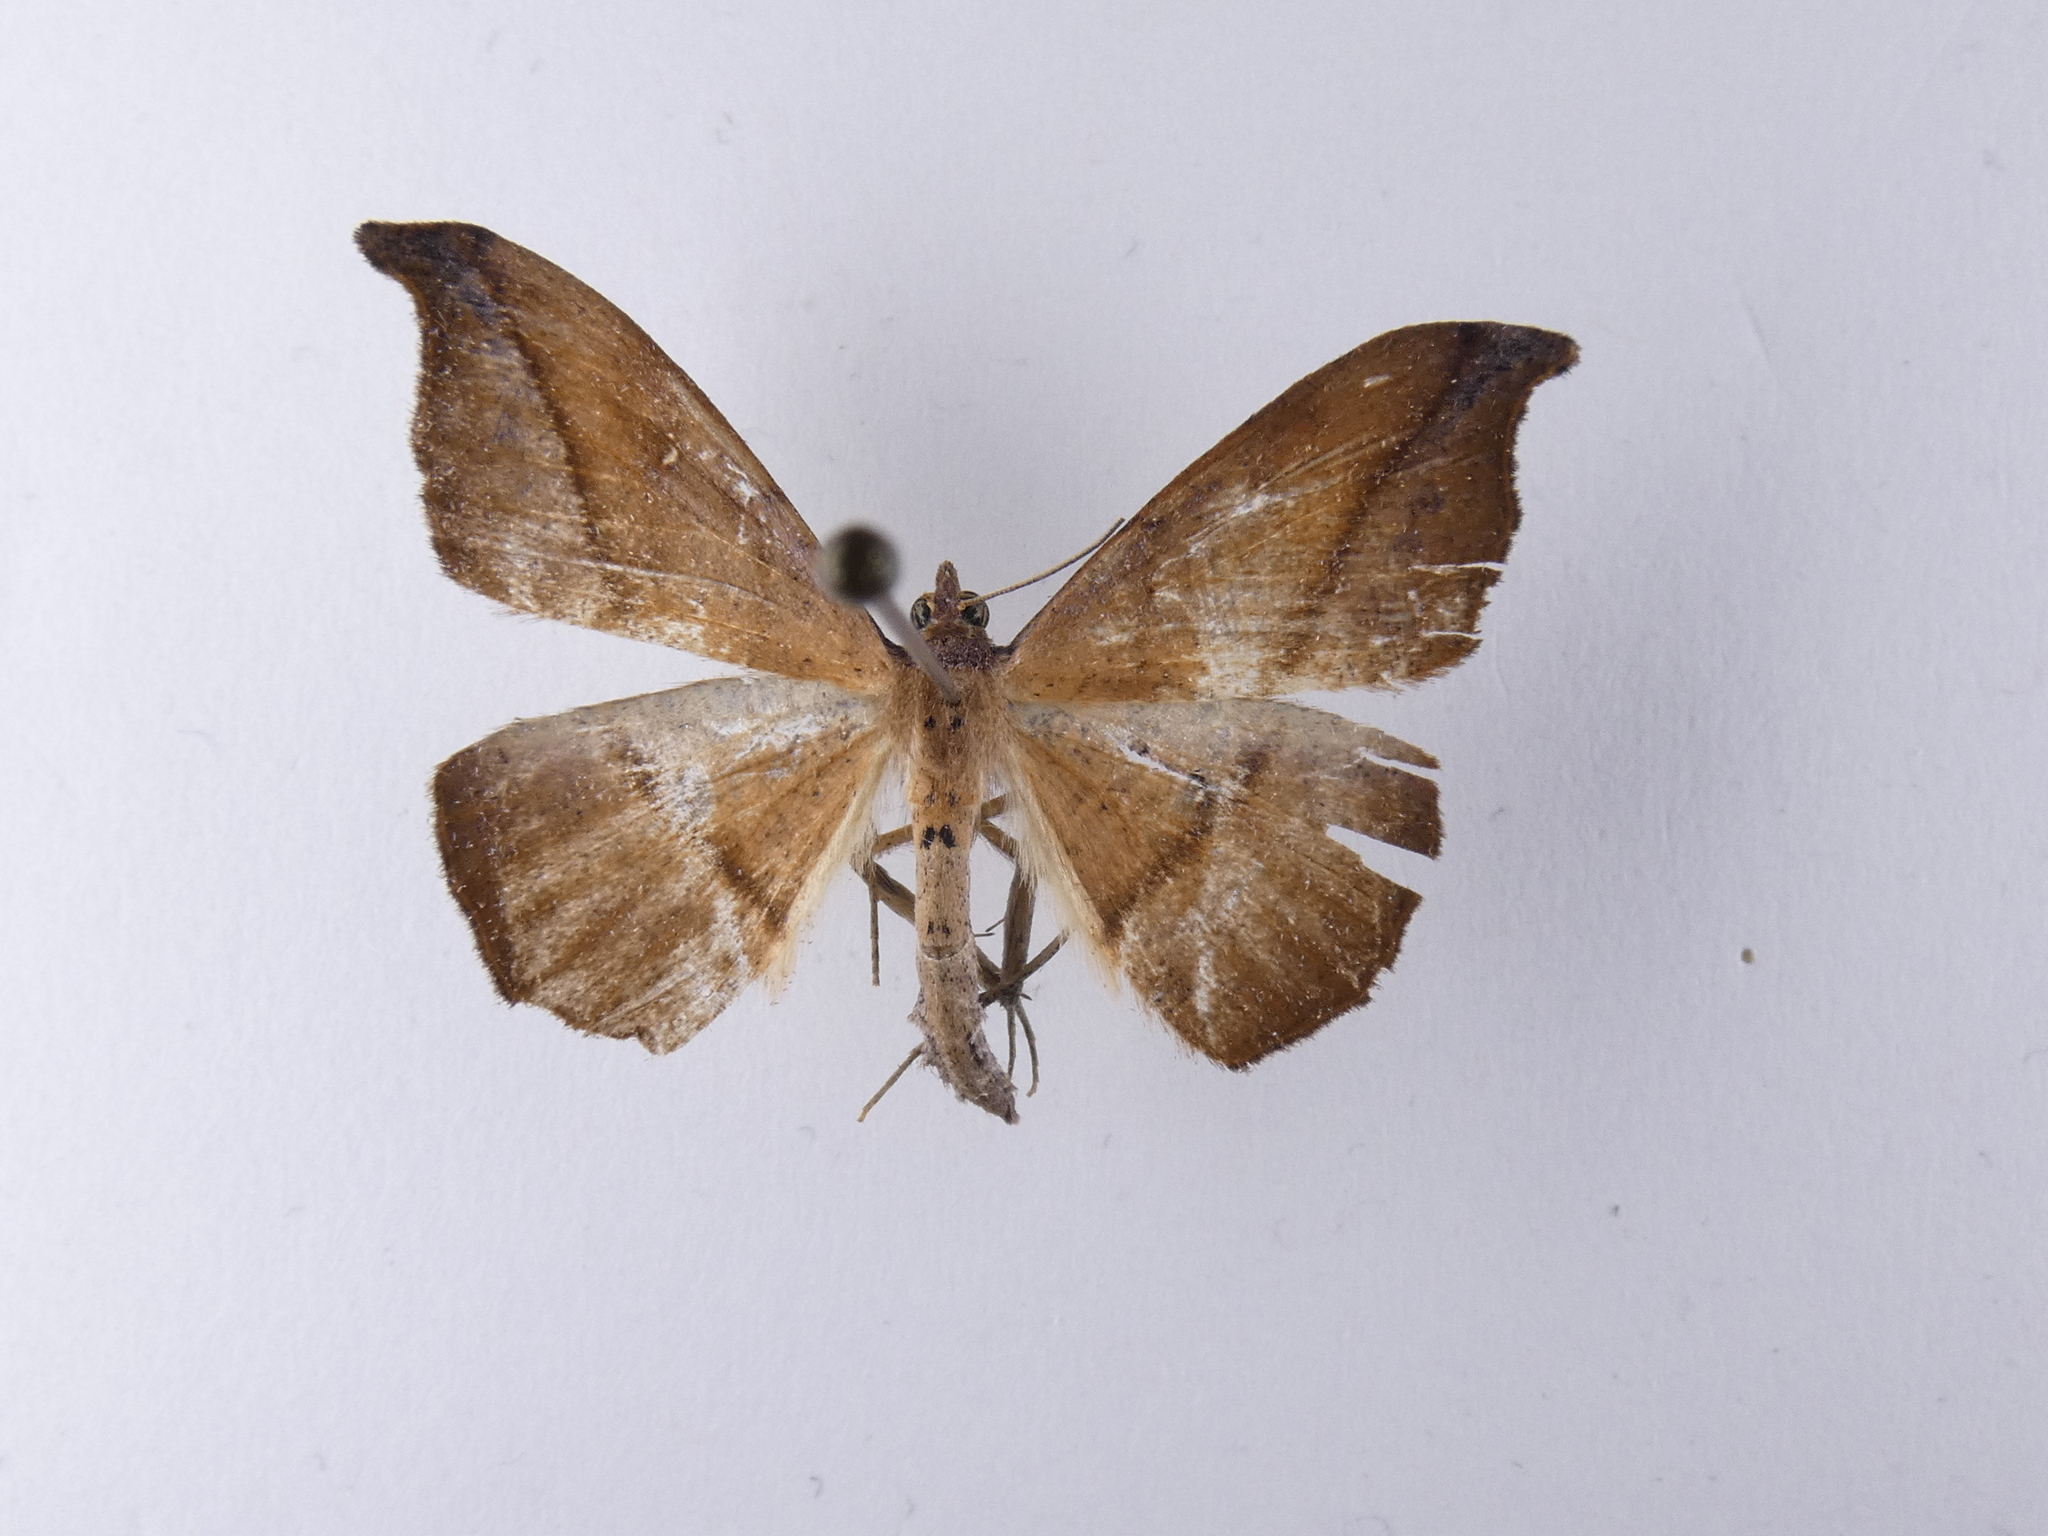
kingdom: Animalia
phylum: Arthropoda
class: Insecta
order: Lepidoptera
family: Geometridae
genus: Sarisa
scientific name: Sarisa muriferata
